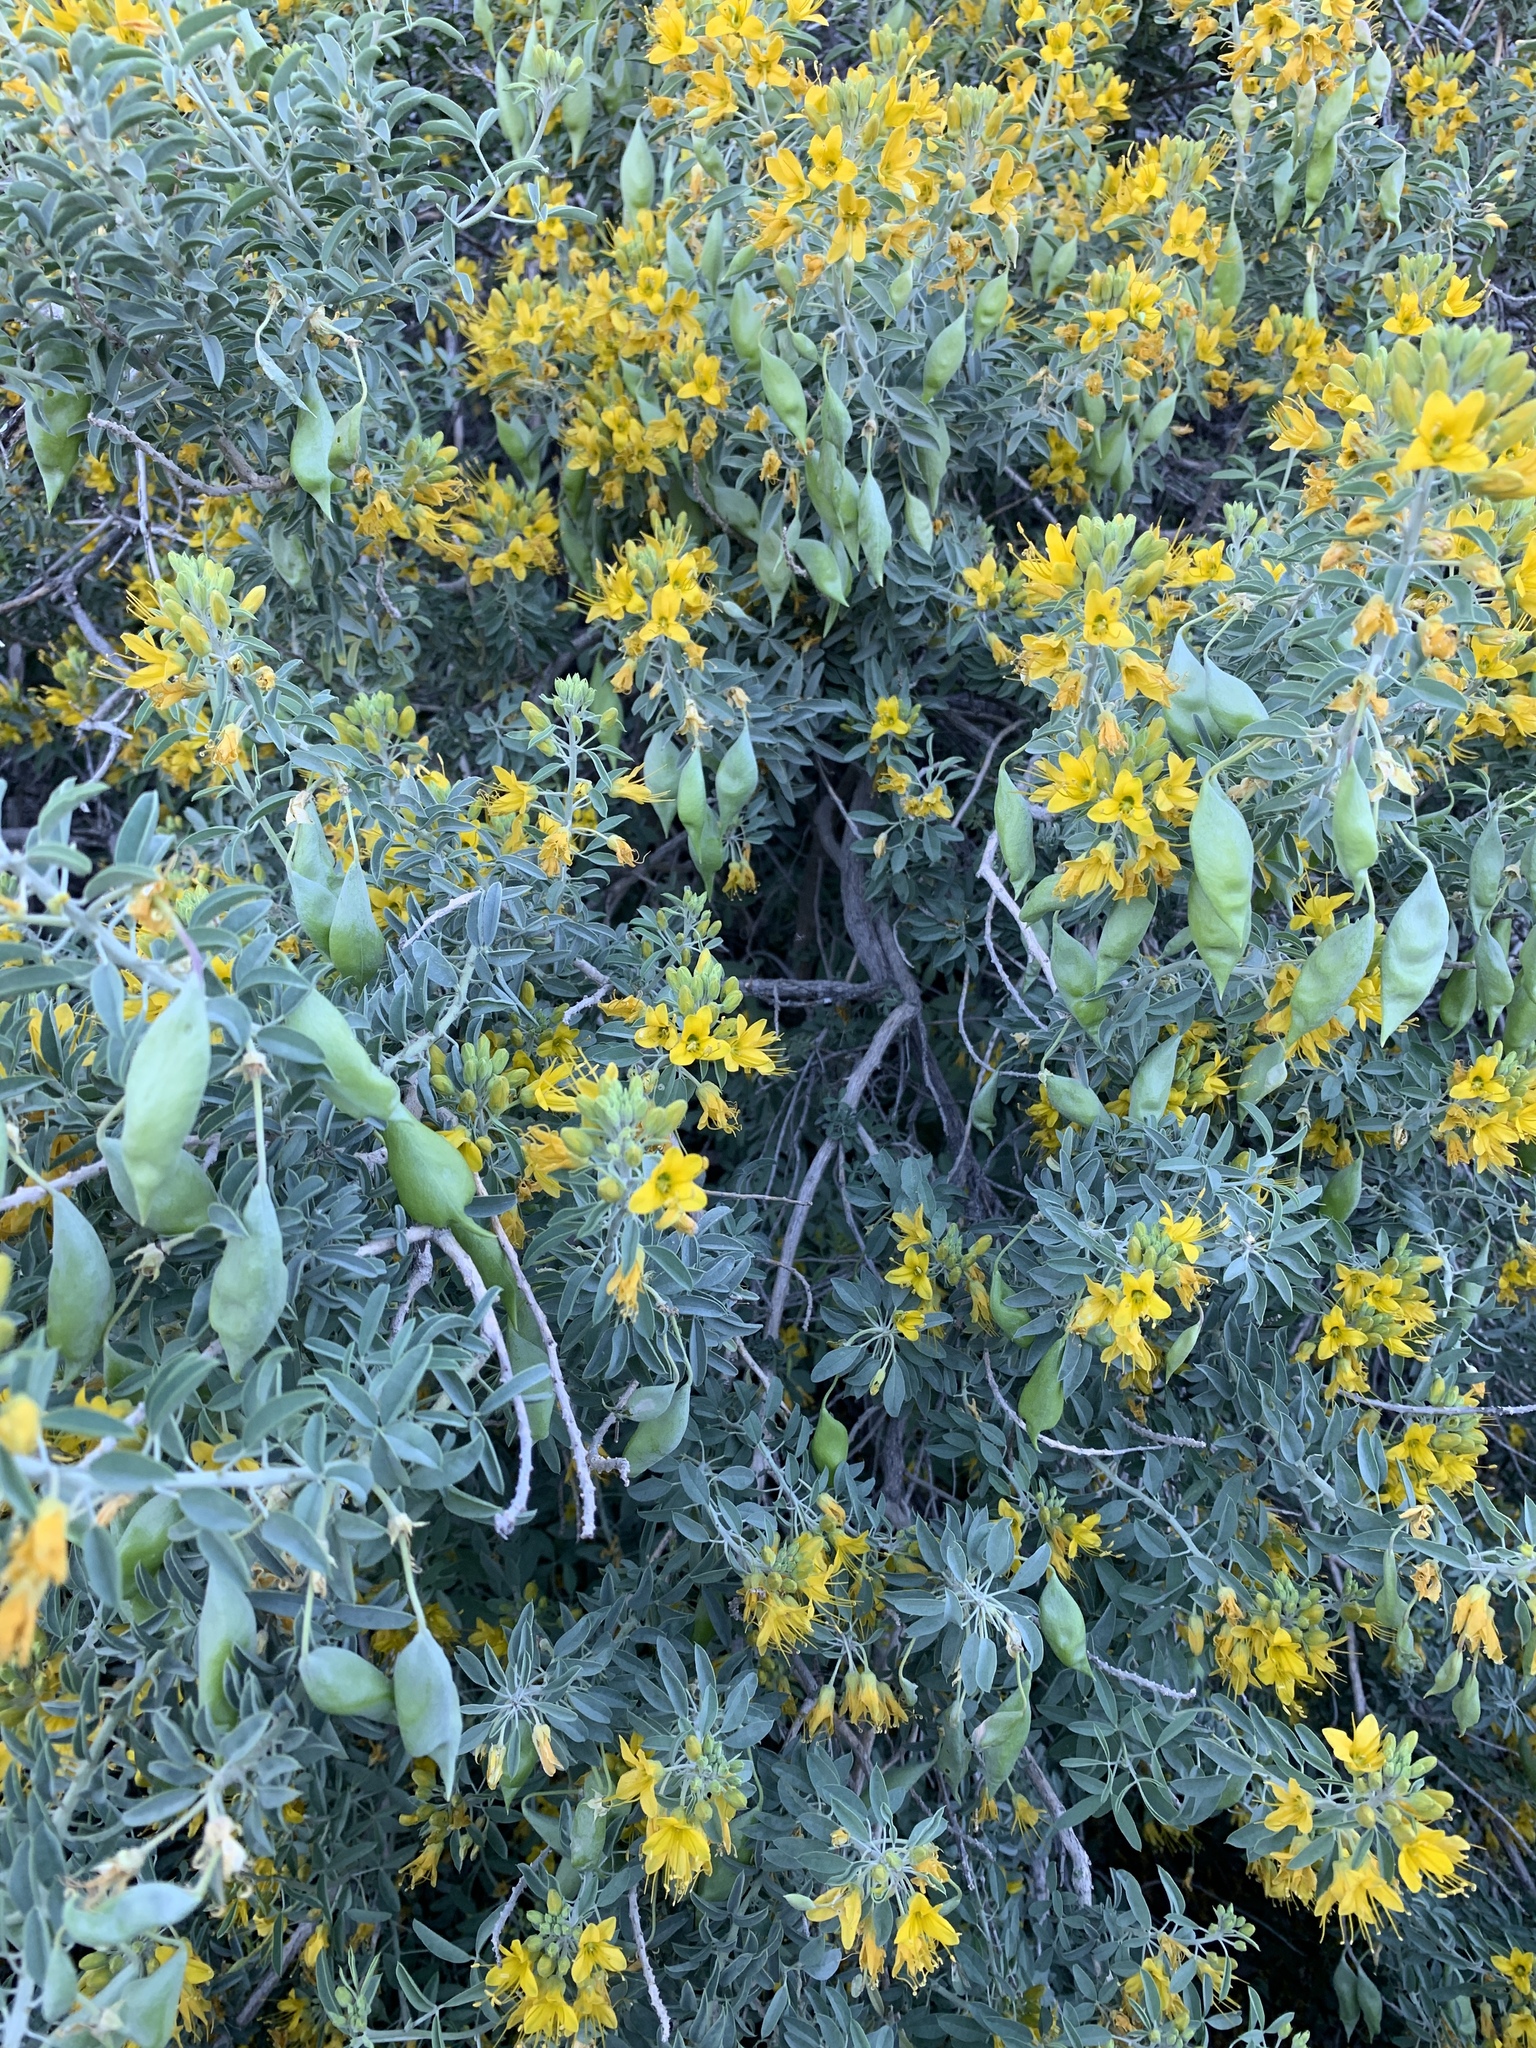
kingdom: Plantae
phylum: Tracheophyta
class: Magnoliopsida
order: Brassicales
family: Cleomaceae
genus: Cleomella
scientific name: Cleomella arborea
